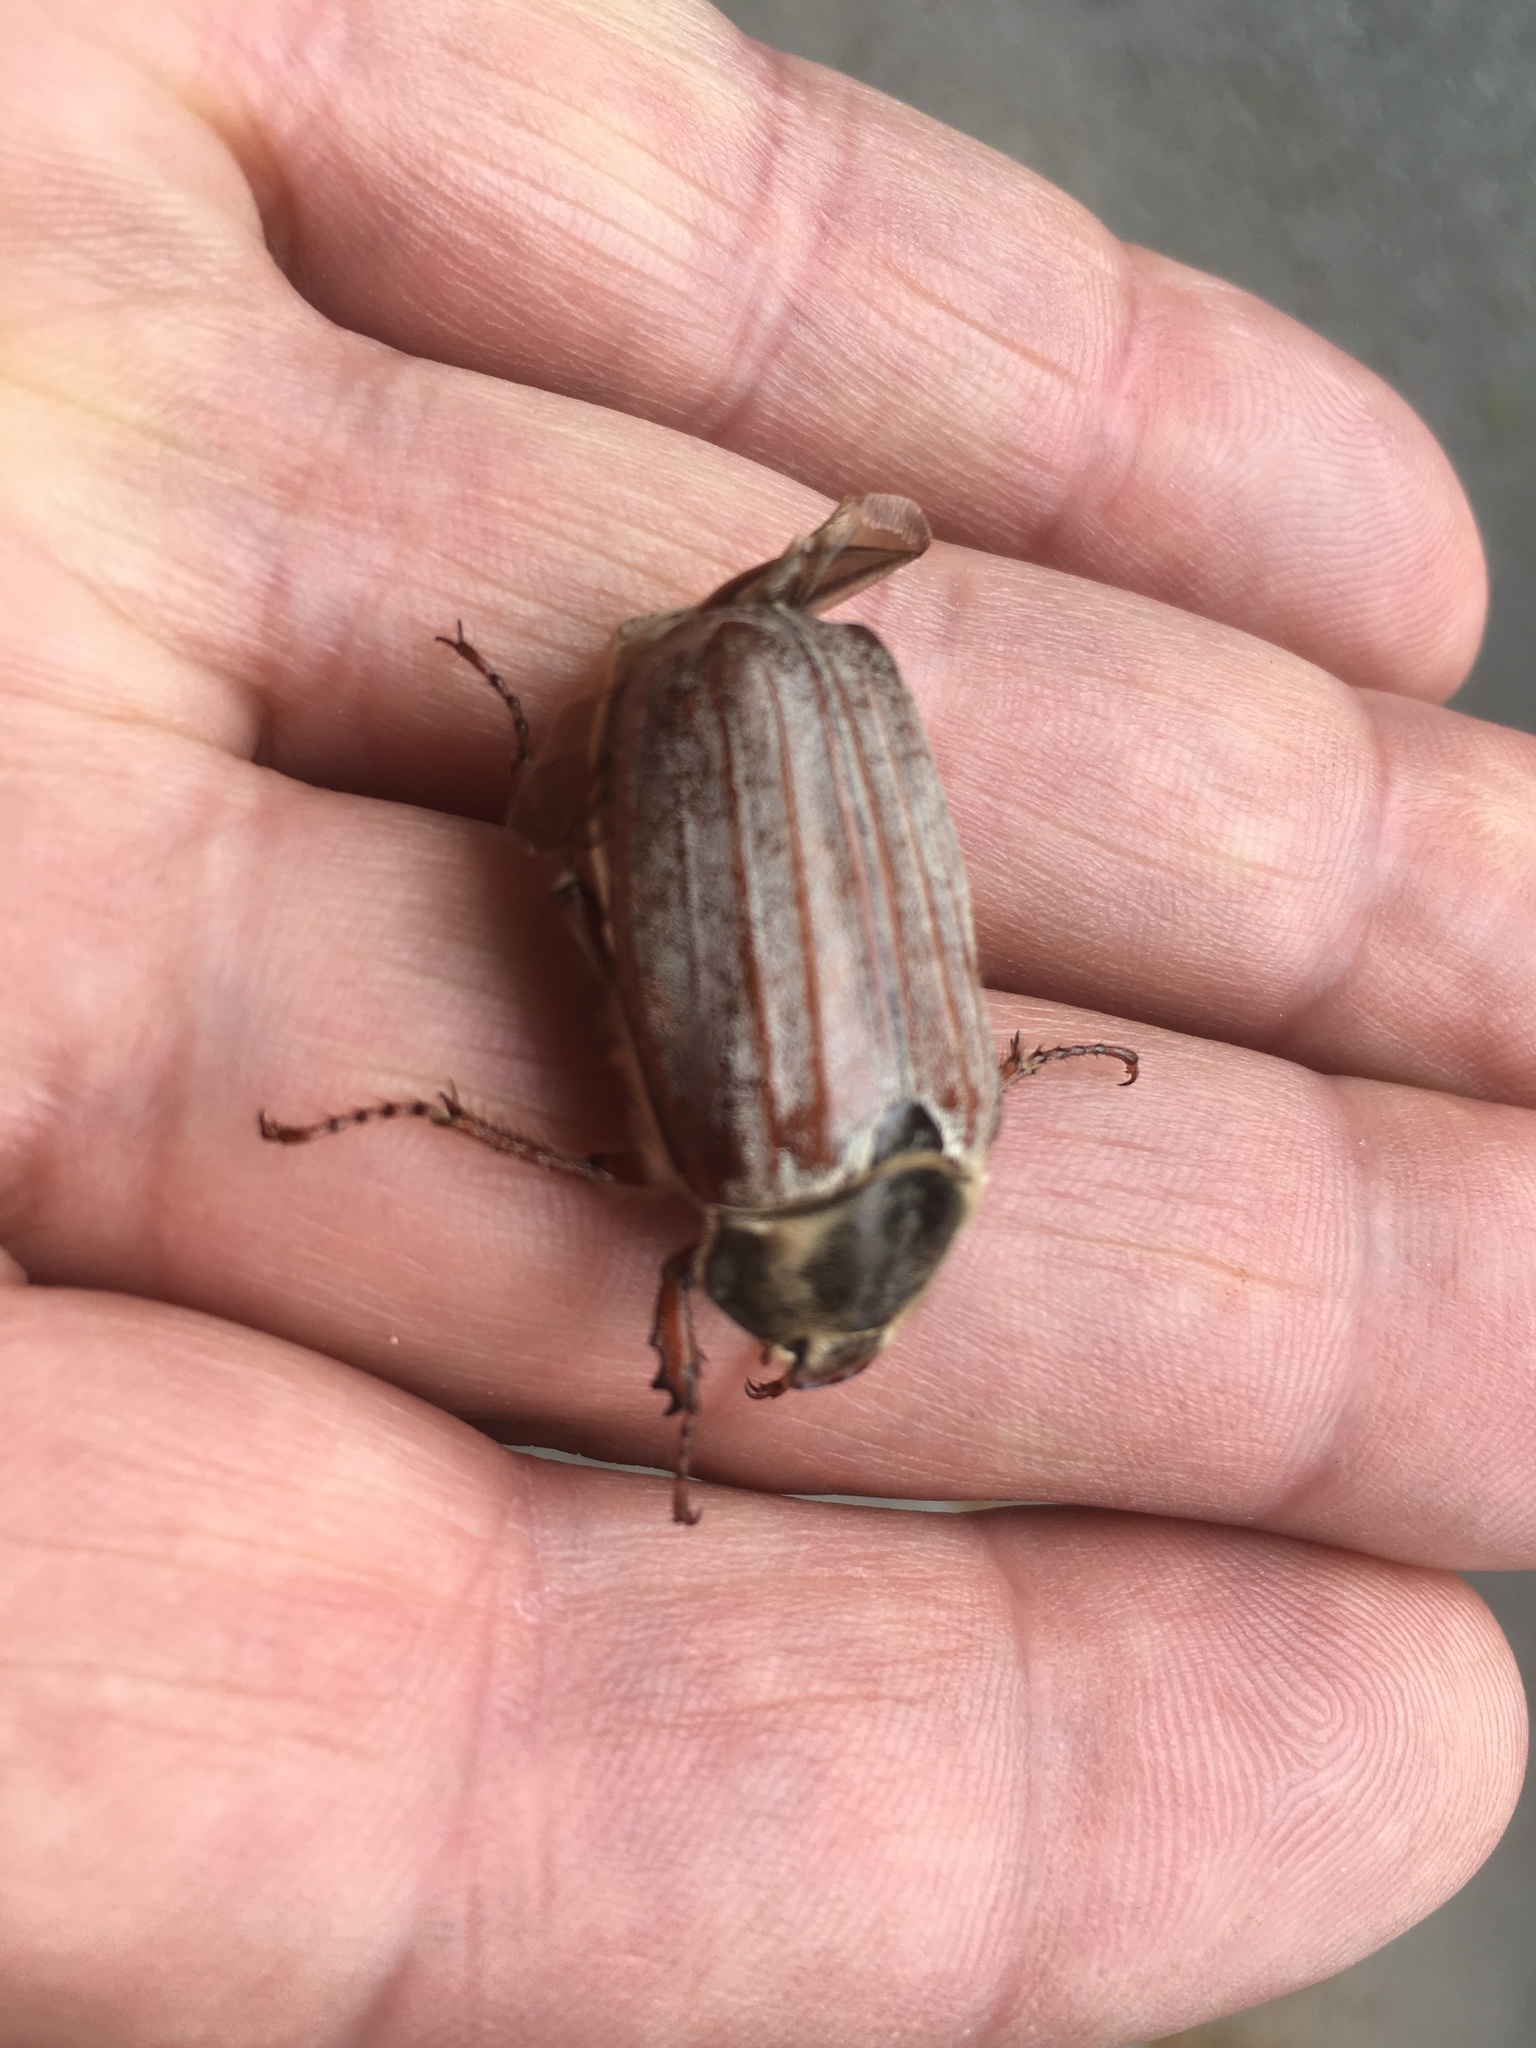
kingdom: Animalia
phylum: Arthropoda
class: Insecta
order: Coleoptera
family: Scarabaeidae
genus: Melolontha
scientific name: Melolontha melolontha
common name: Cockchafer maybeetle
